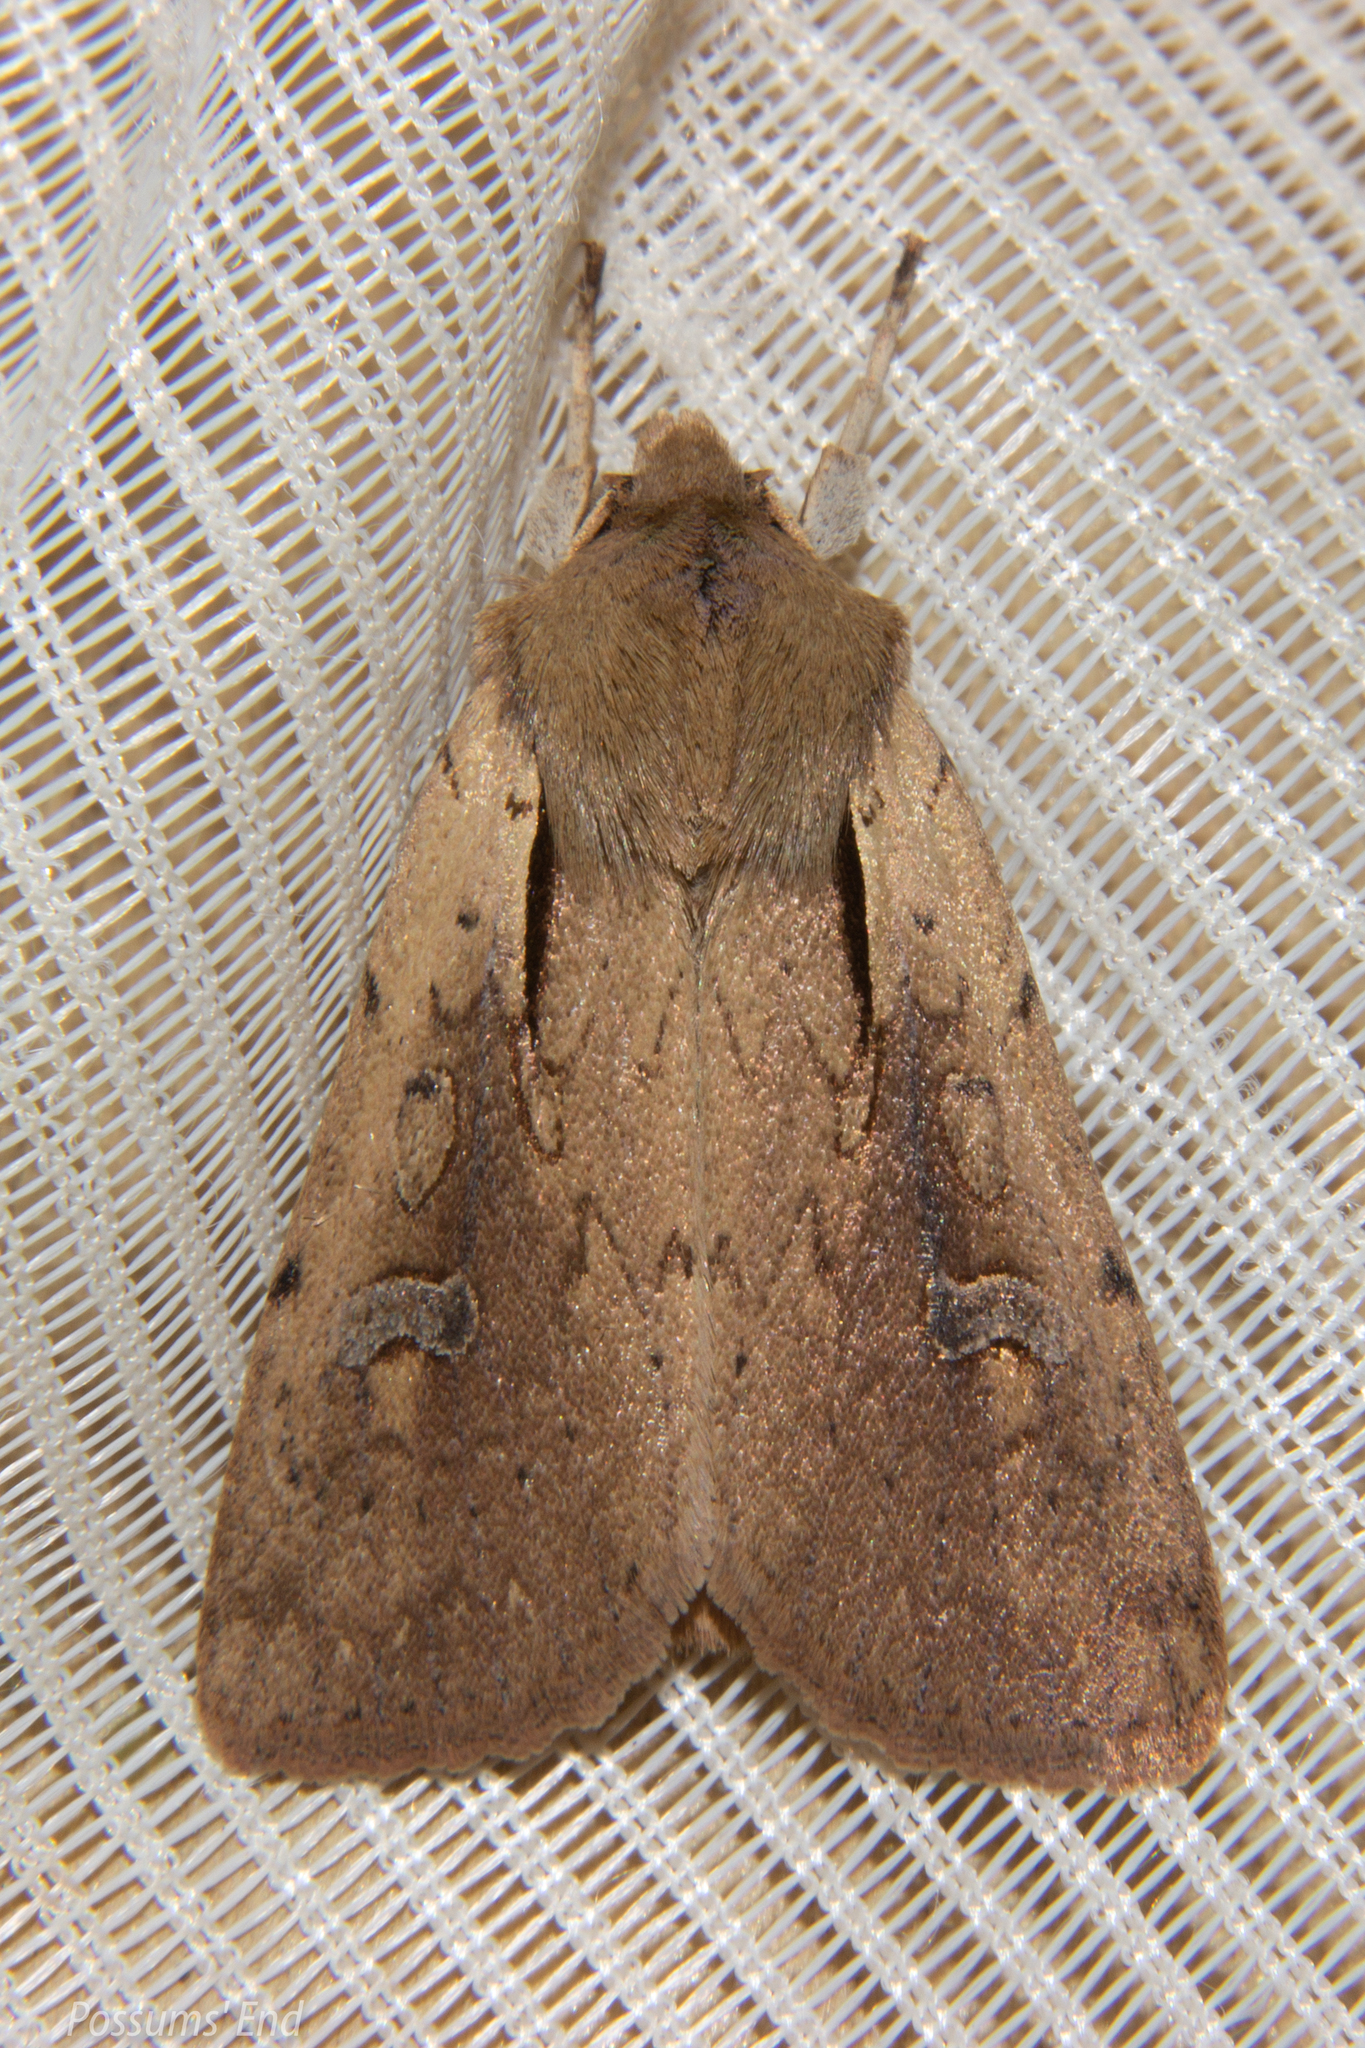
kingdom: Animalia
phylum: Arthropoda
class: Insecta
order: Lepidoptera
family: Noctuidae
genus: Ichneutica
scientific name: Ichneutica atristriga
